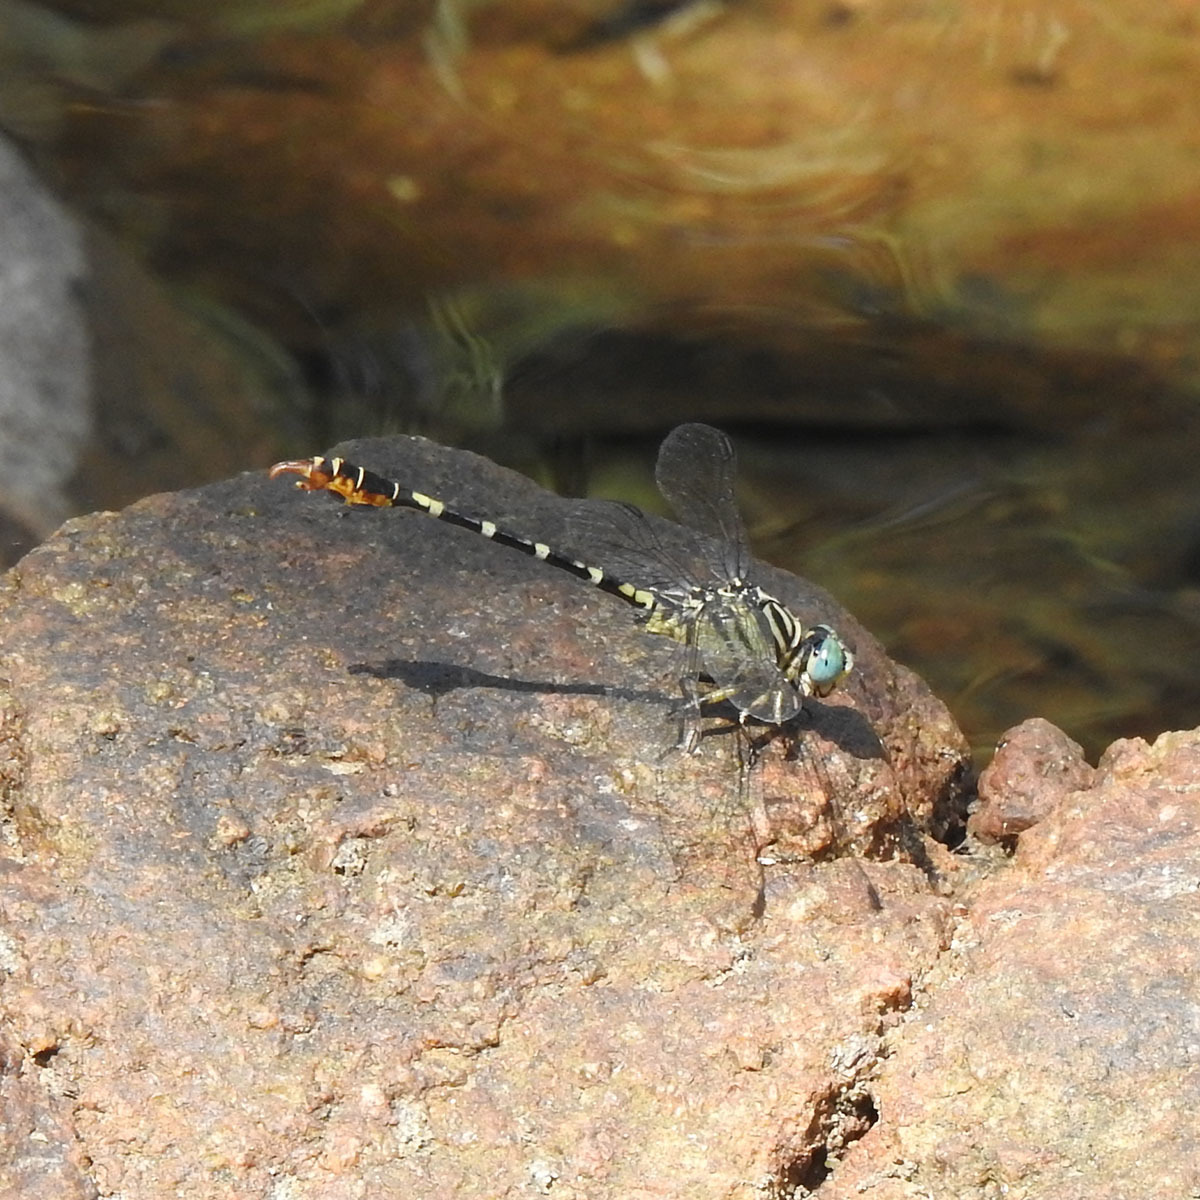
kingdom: Animalia
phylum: Arthropoda
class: Insecta
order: Odonata
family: Gomphidae
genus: Paragomphus
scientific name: Paragomphus lineatus
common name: Lined hooktail
